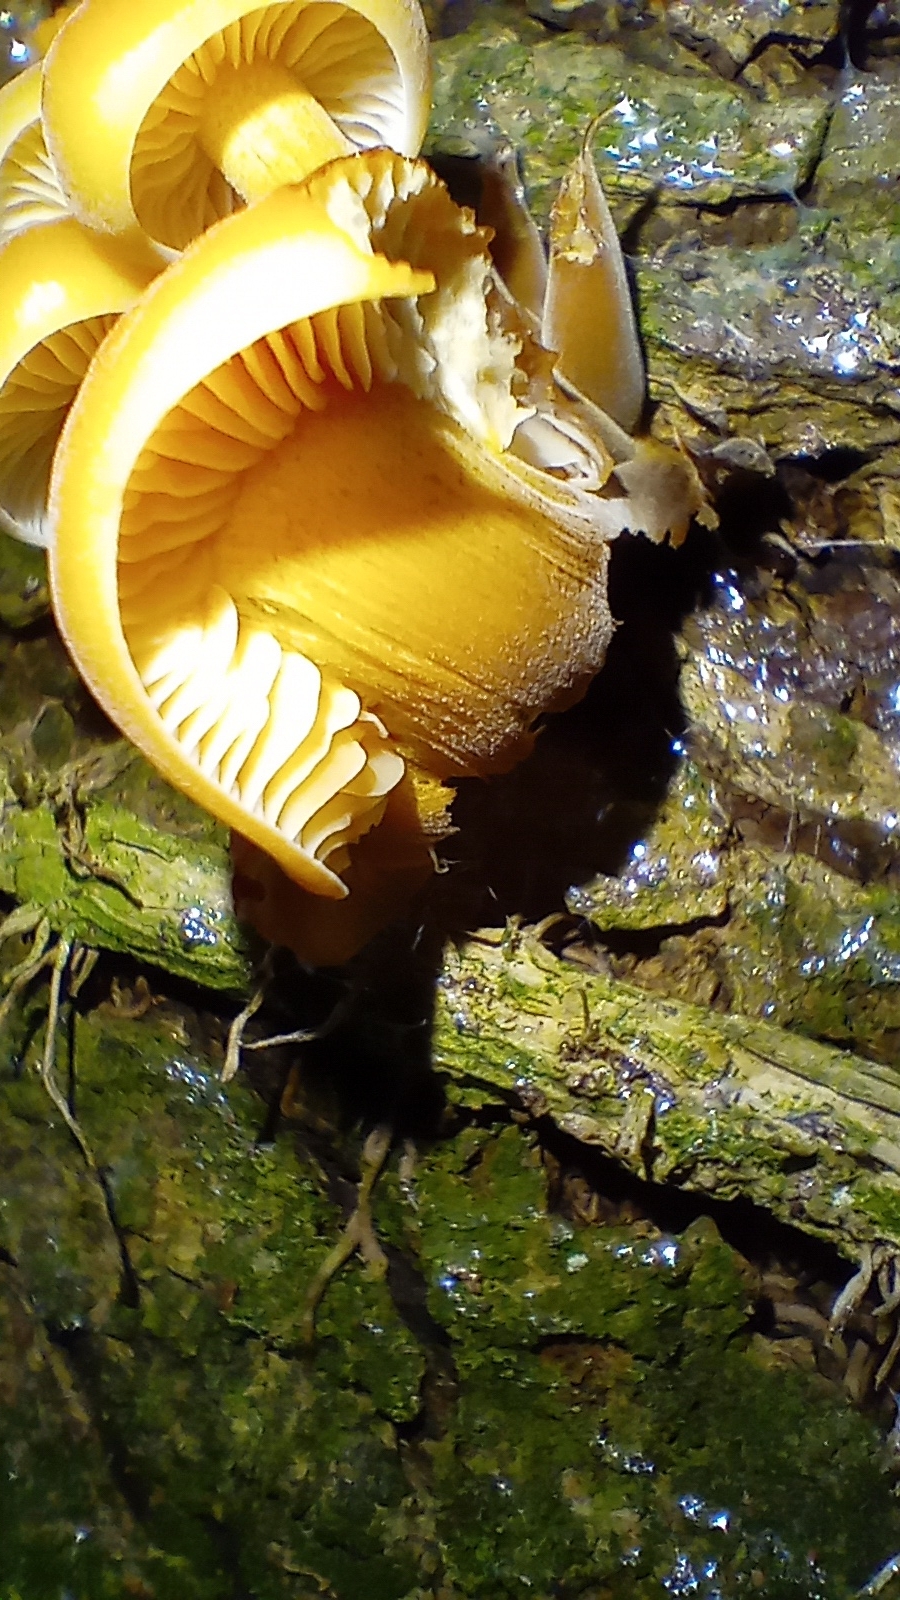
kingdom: Fungi
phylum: Basidiomycota
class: Agaricomycetes
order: Agaricales
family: Physalacriaceae
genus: Flammulina
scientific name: Flammulina
